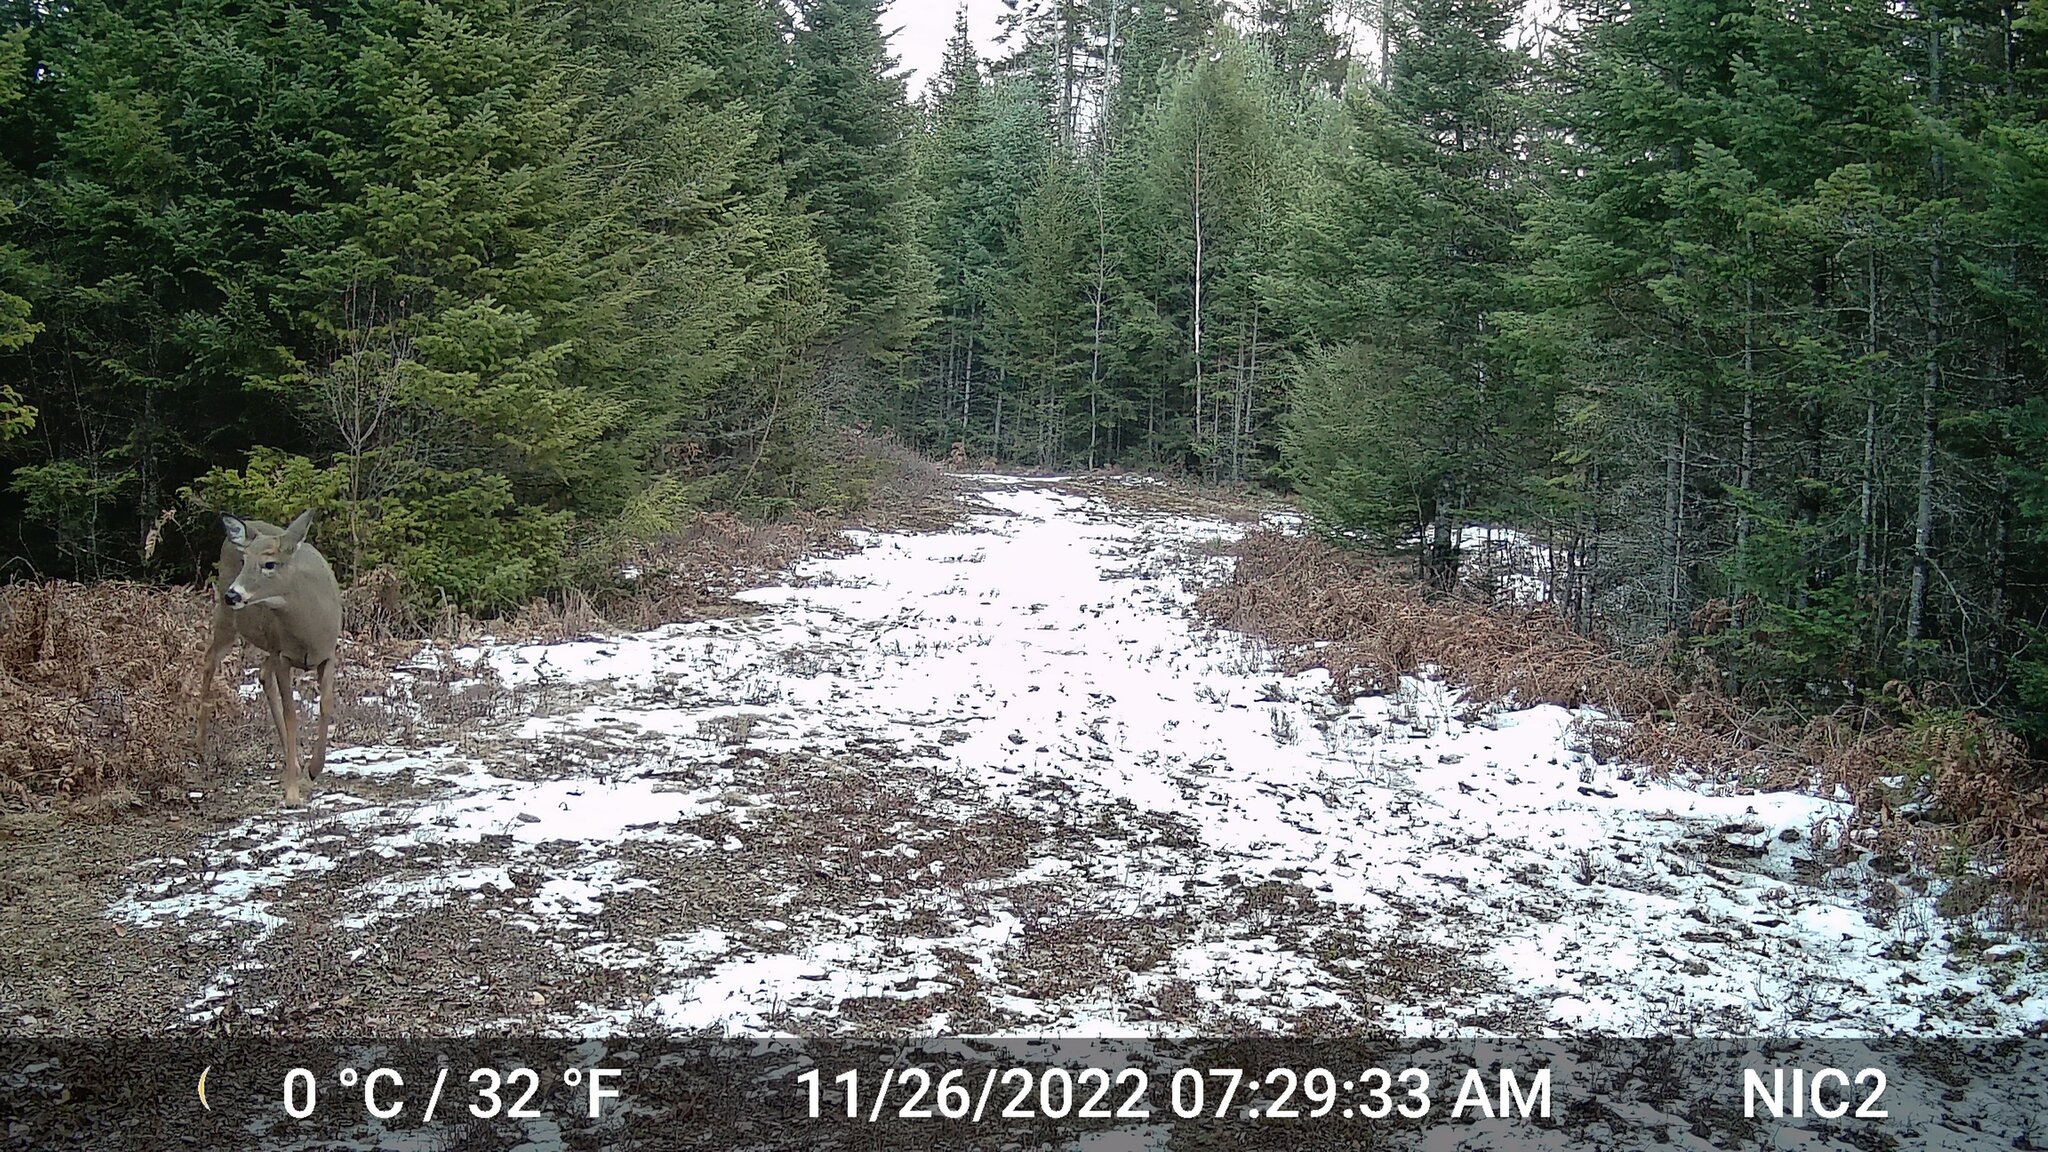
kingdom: Animalia
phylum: Chordata
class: Mammalia
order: Artiodactyla
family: Cervidae
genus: Odocoileus
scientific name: Odocoileus virginianus
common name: White-tailed deer
